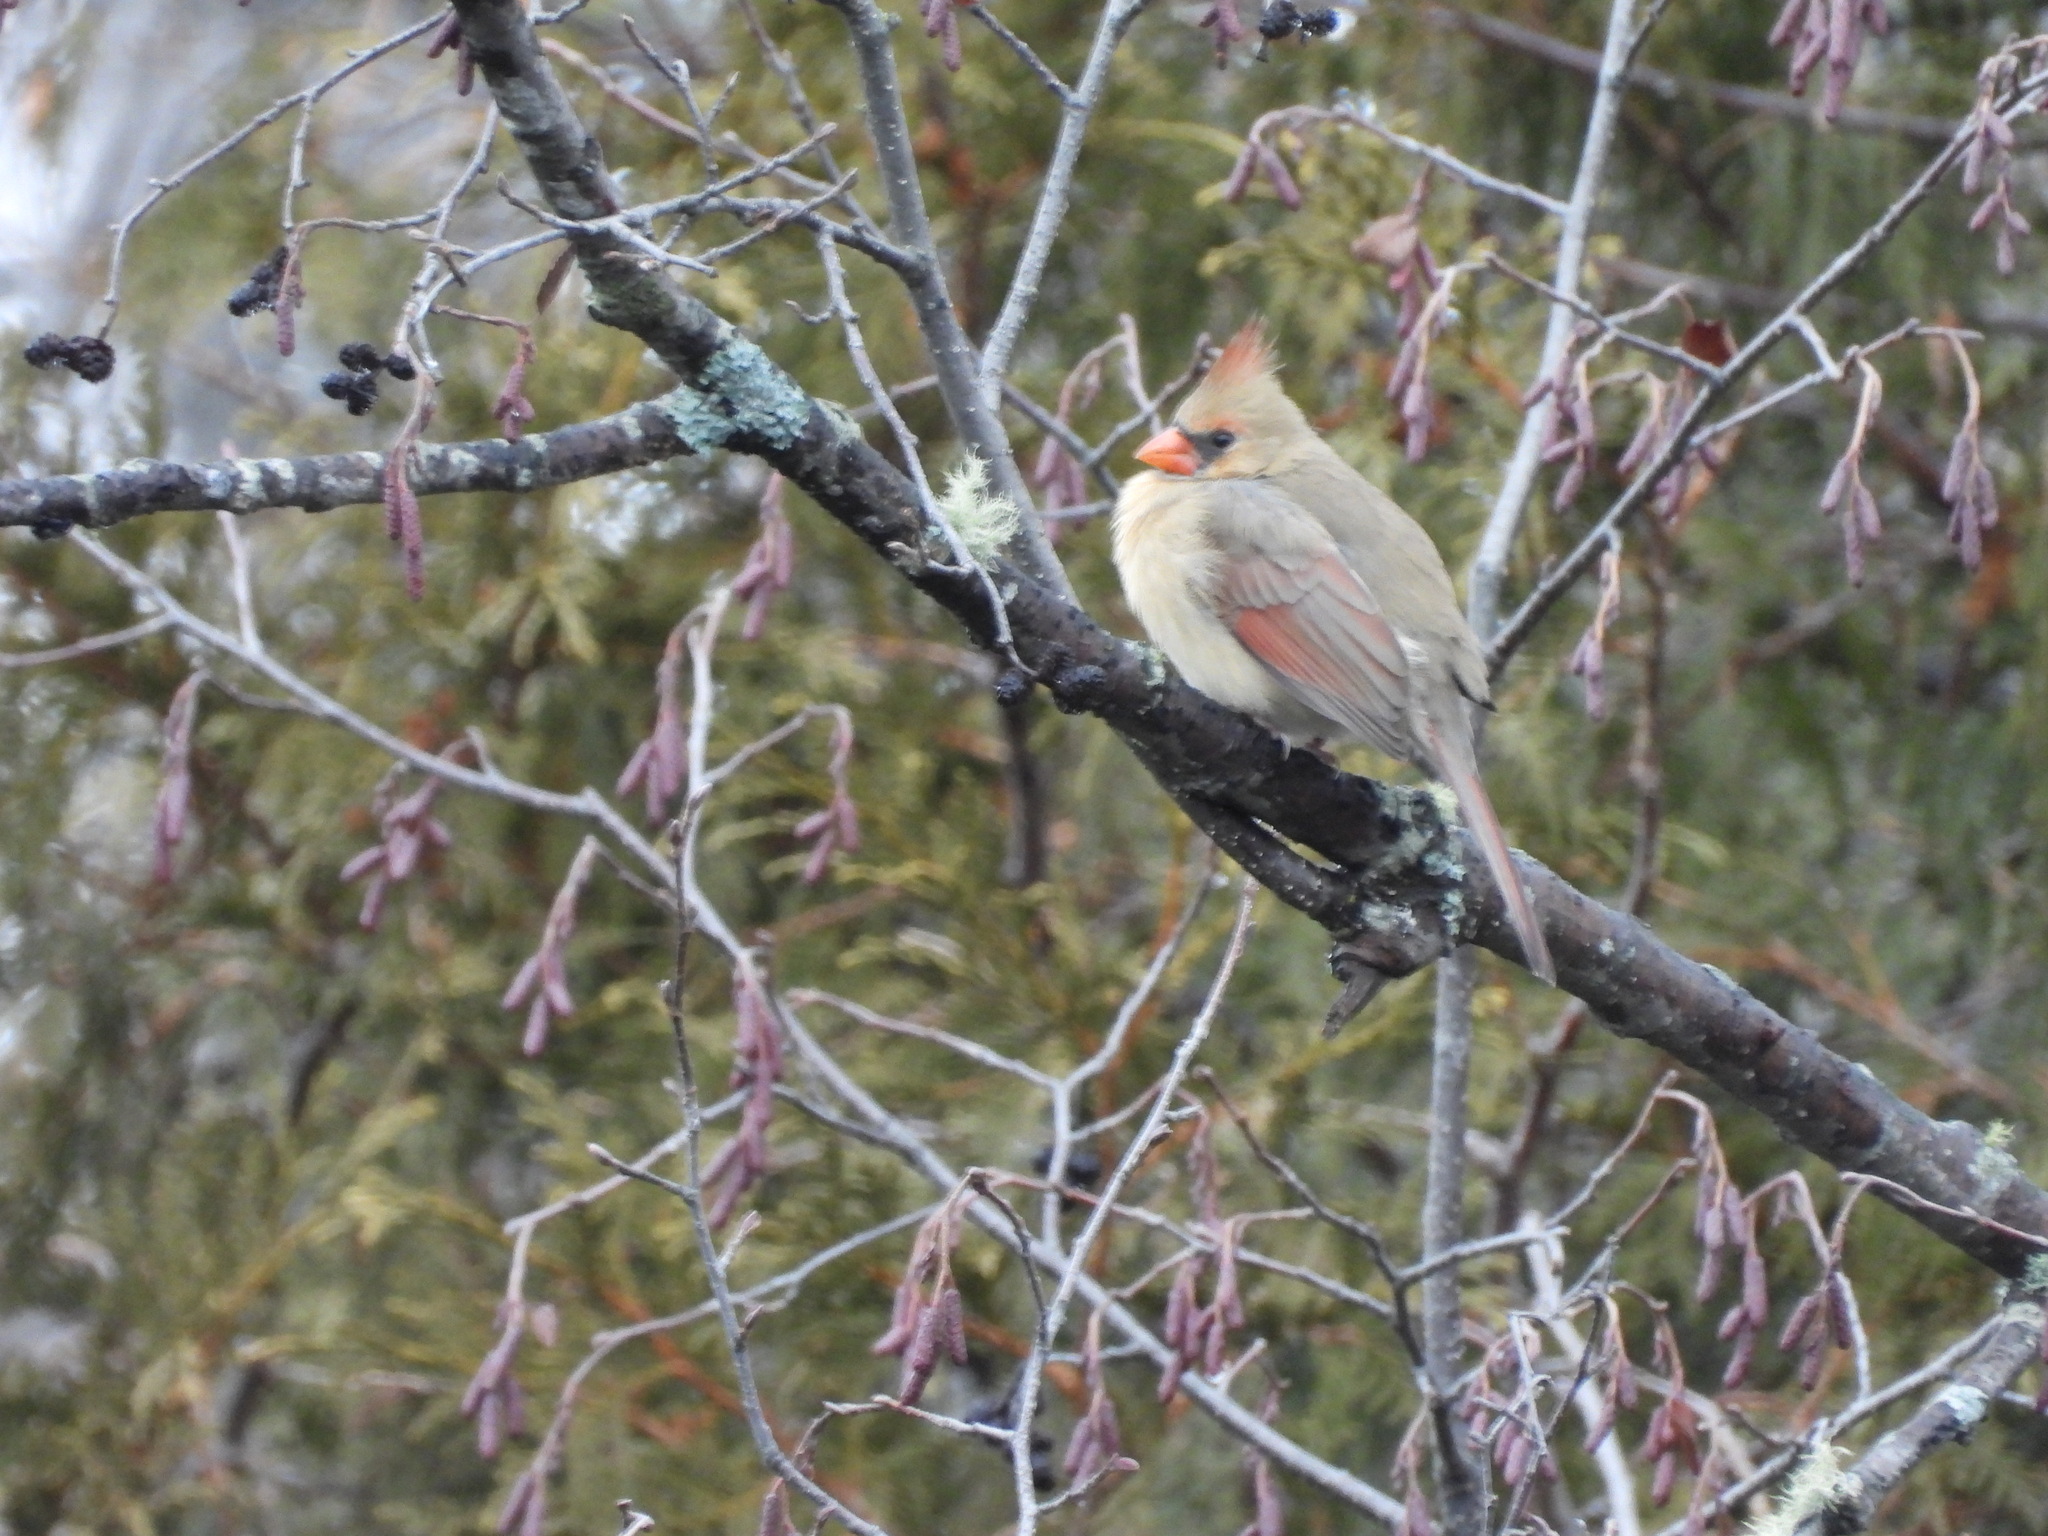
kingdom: Animalia
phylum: Chordata
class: Aves
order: Passeriformes
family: Cardinalidae
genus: Cardinalis
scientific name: Cardinalis cardinalis
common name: Northern cardinal
